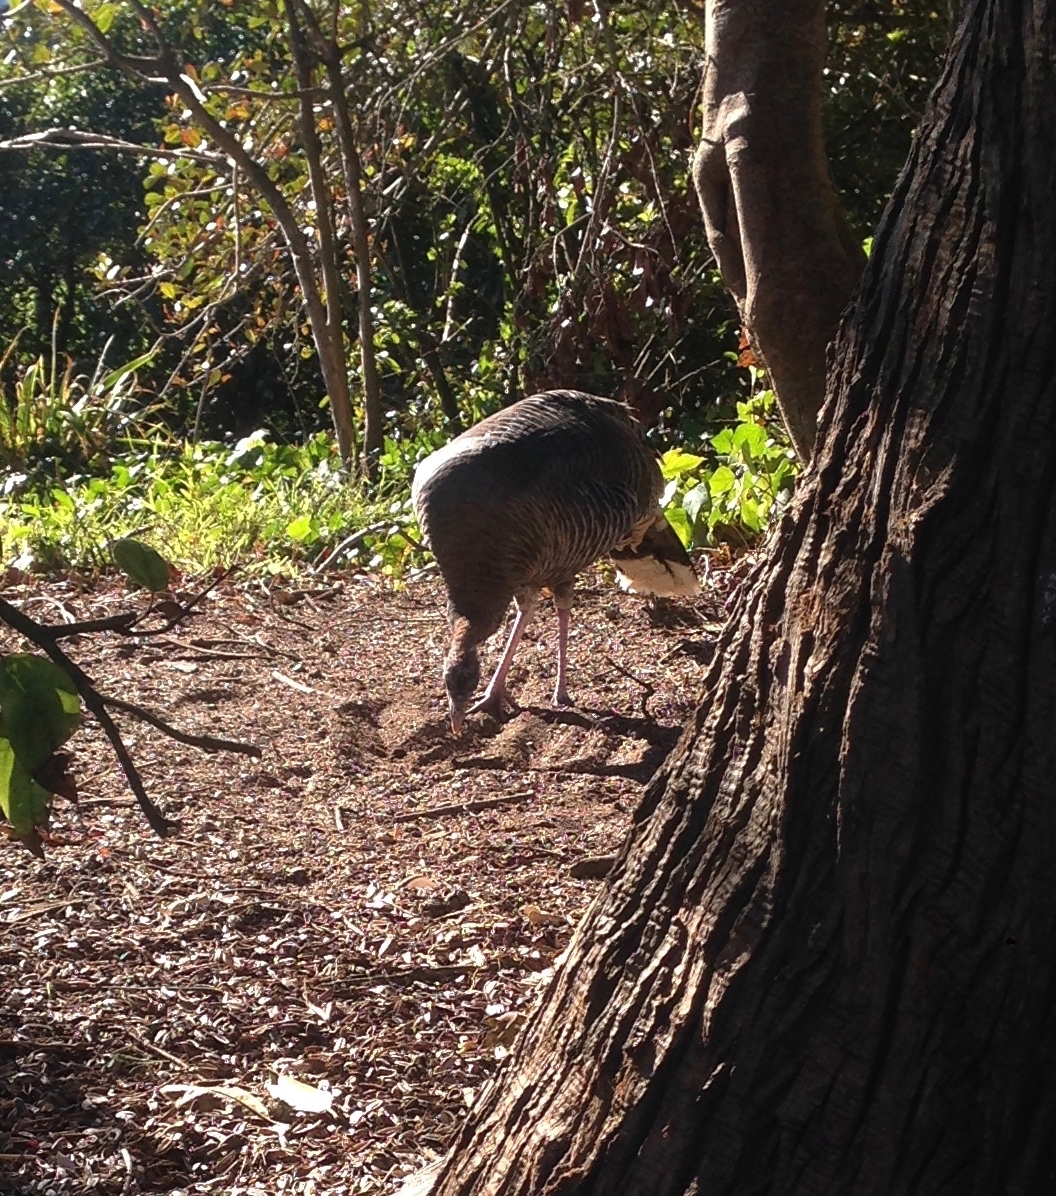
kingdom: Animalia
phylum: Chordata
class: Aves
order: Galliformes
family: Phasianidae
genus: Meleagris
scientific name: Meleagris gallopavo
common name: Wild turkey
